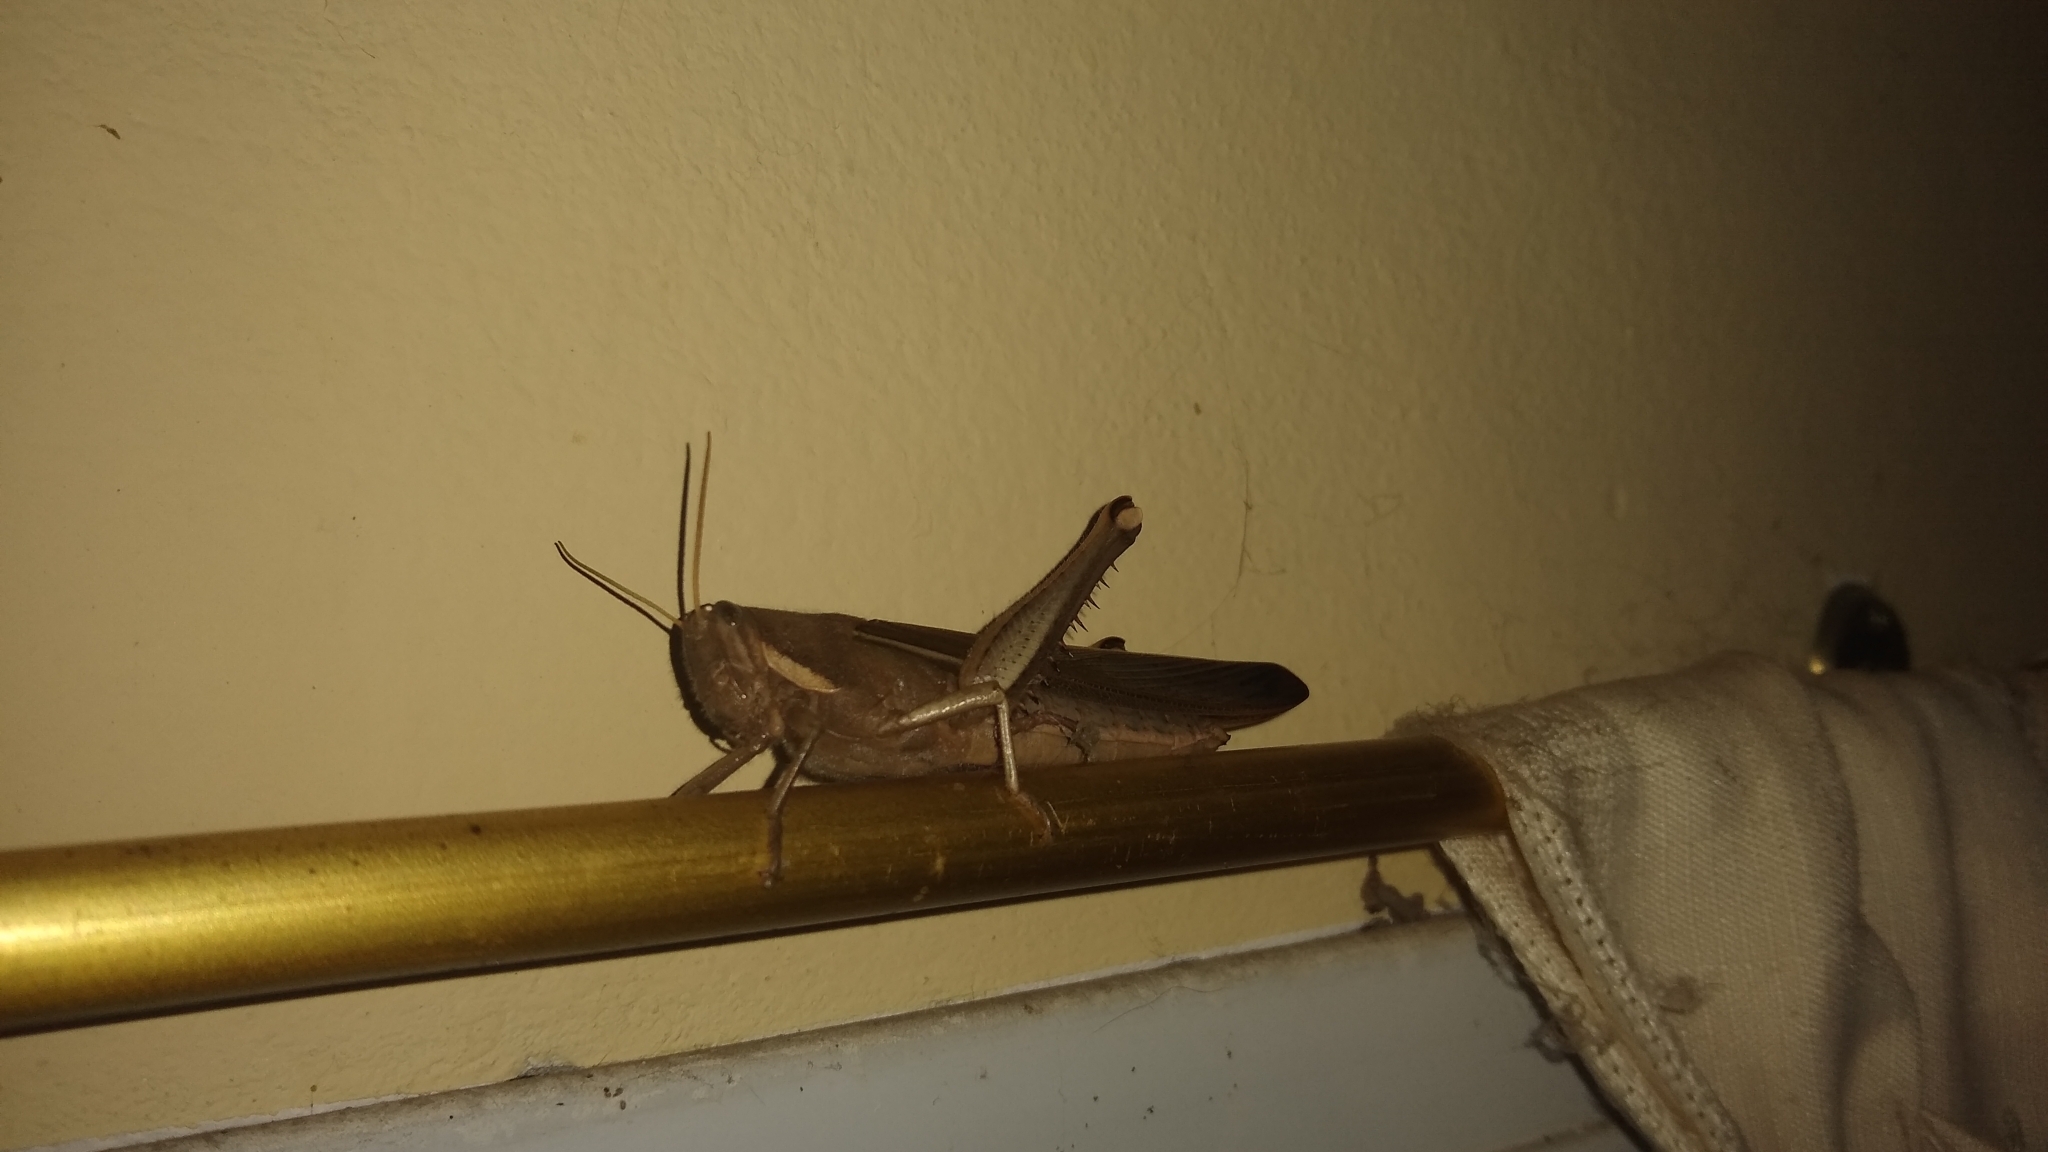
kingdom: Animalia
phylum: Arthropoda
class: Insecta
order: Orthoptera
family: Acrididae
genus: Schistocerca
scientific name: Schistocerca flavofasciata
